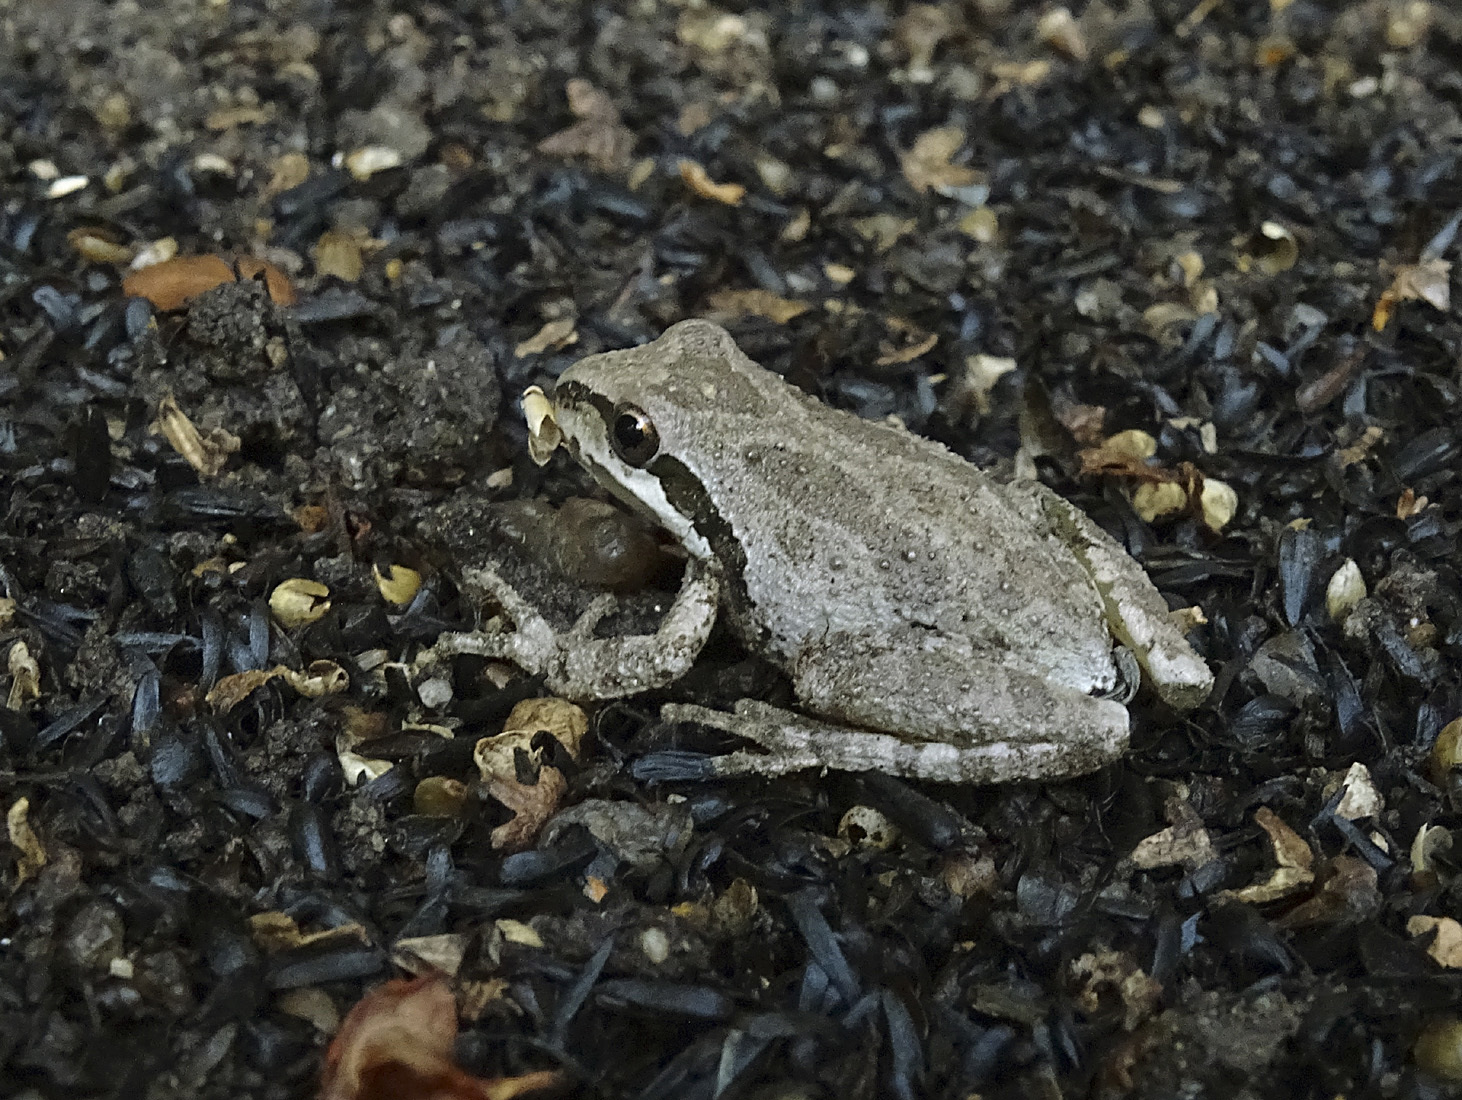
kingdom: Animalia
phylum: Chordata
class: Amphibia
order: Anura
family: Hylidae
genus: Pseudacris
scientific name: Pseudacris regilla
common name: Pacific chorus frog
